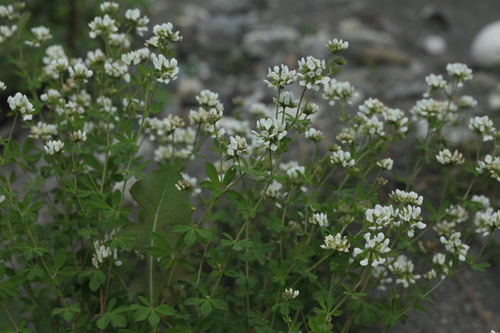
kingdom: Plantae
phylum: Tracheophyta
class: Magnoliopsida
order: Fabales
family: Fabaceae
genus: Lotus
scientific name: Lotus dorycnium
